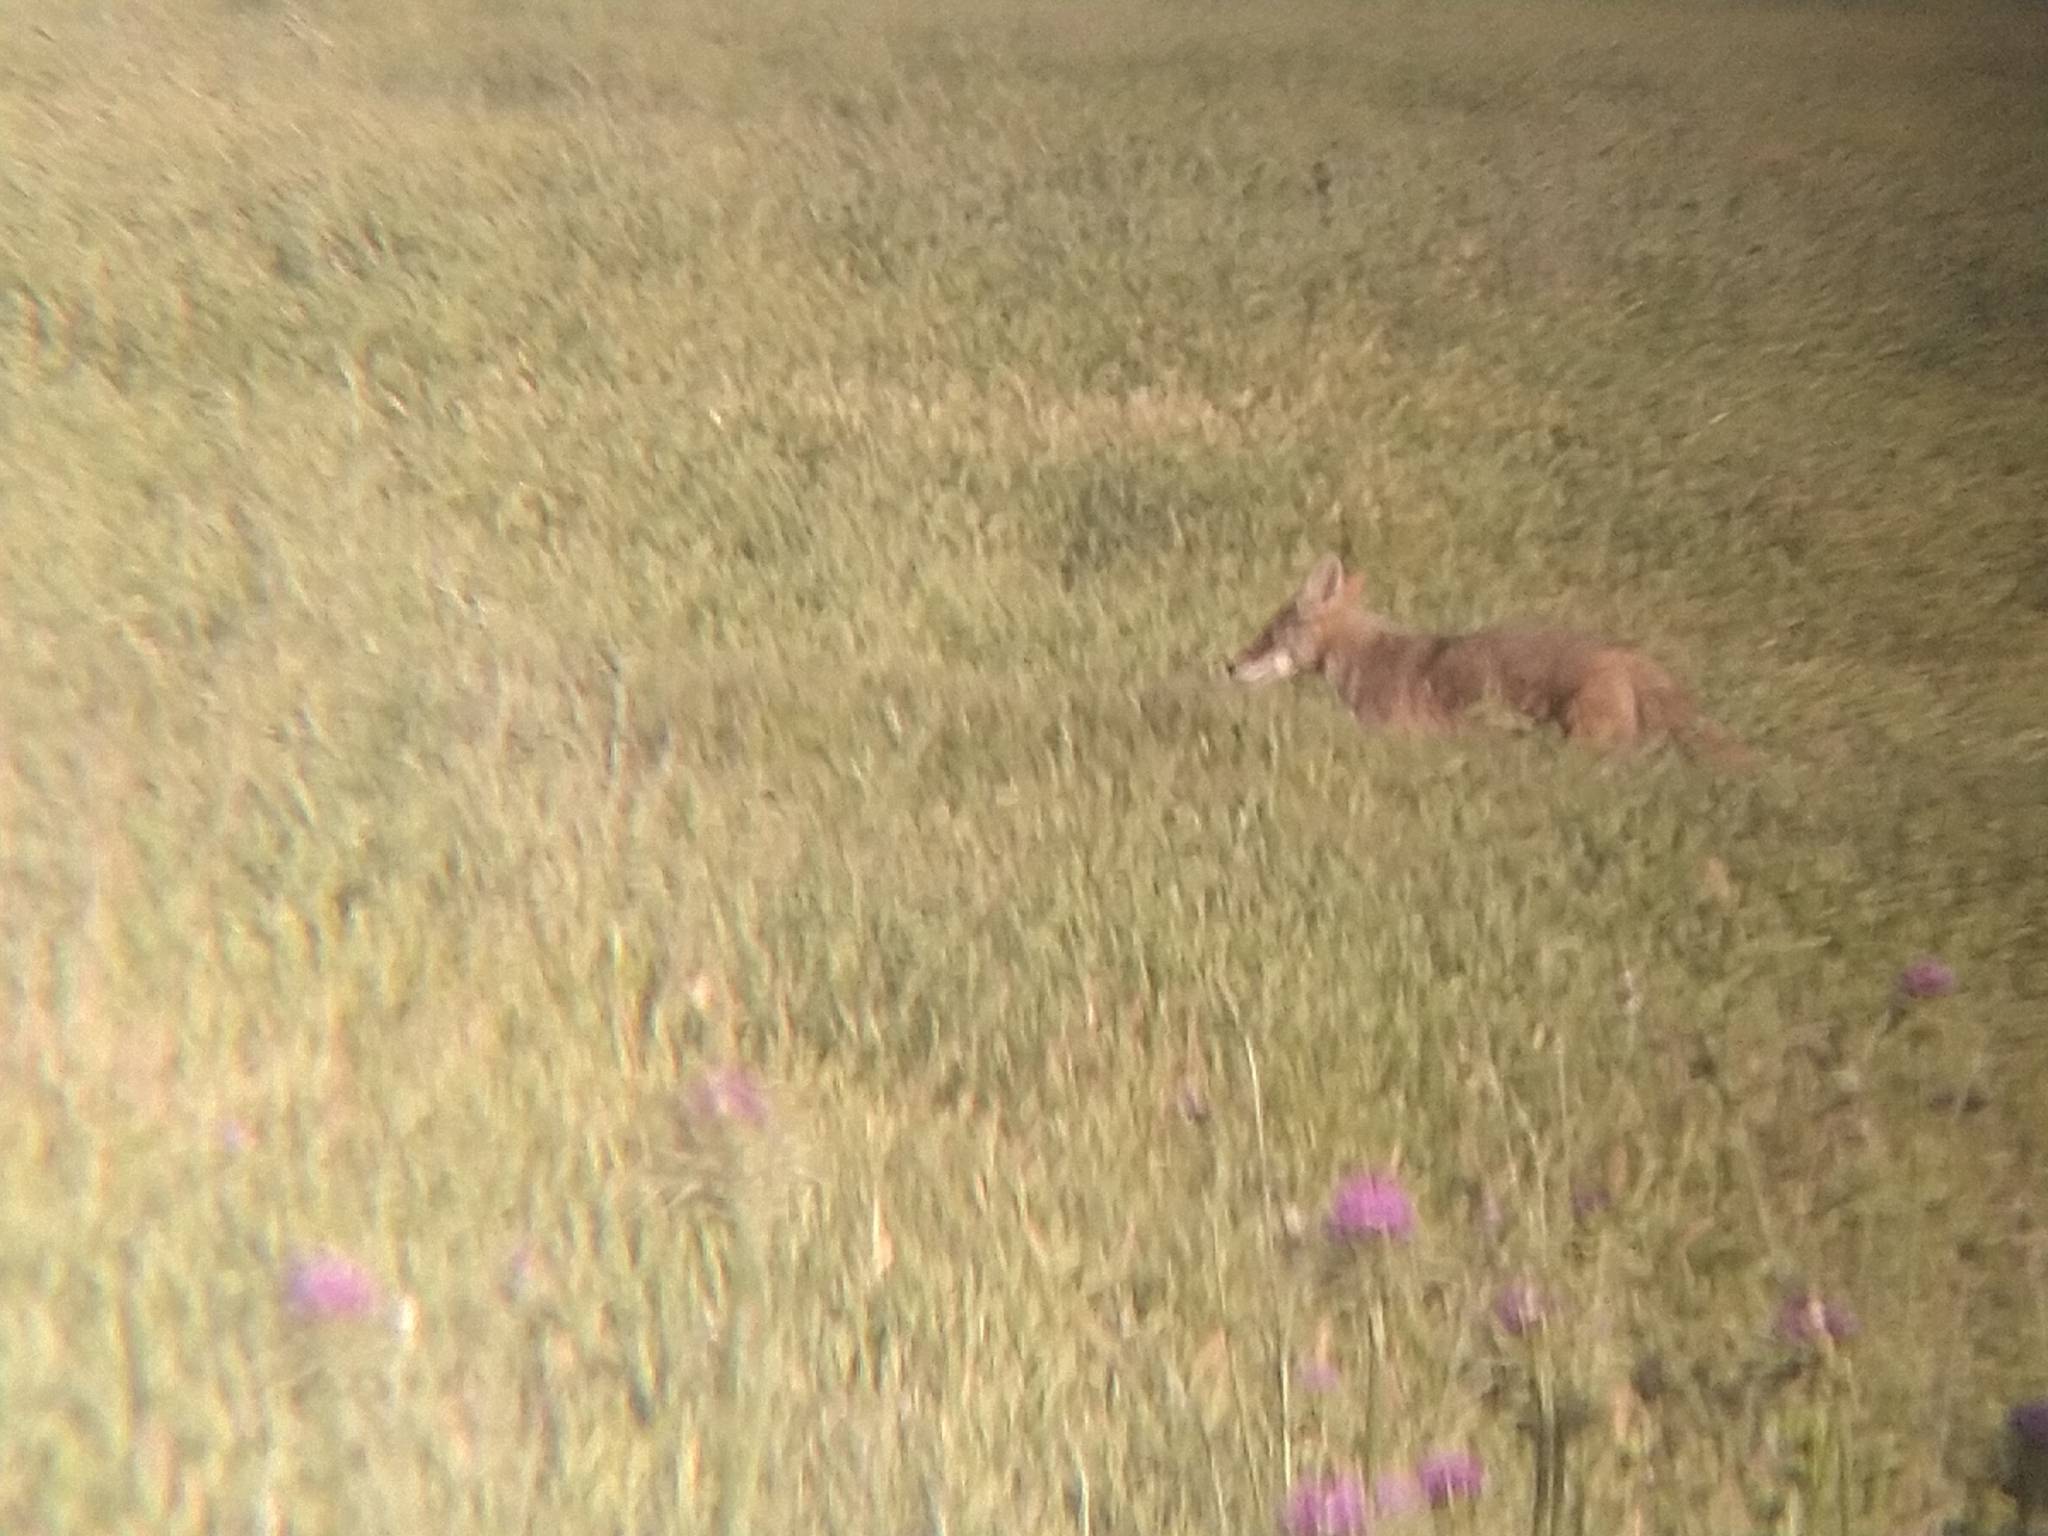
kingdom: Animalia
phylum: Chordata
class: Mammalia
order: Carnivora
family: Canidae
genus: Canis
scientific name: Canis latrans
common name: Coyote
